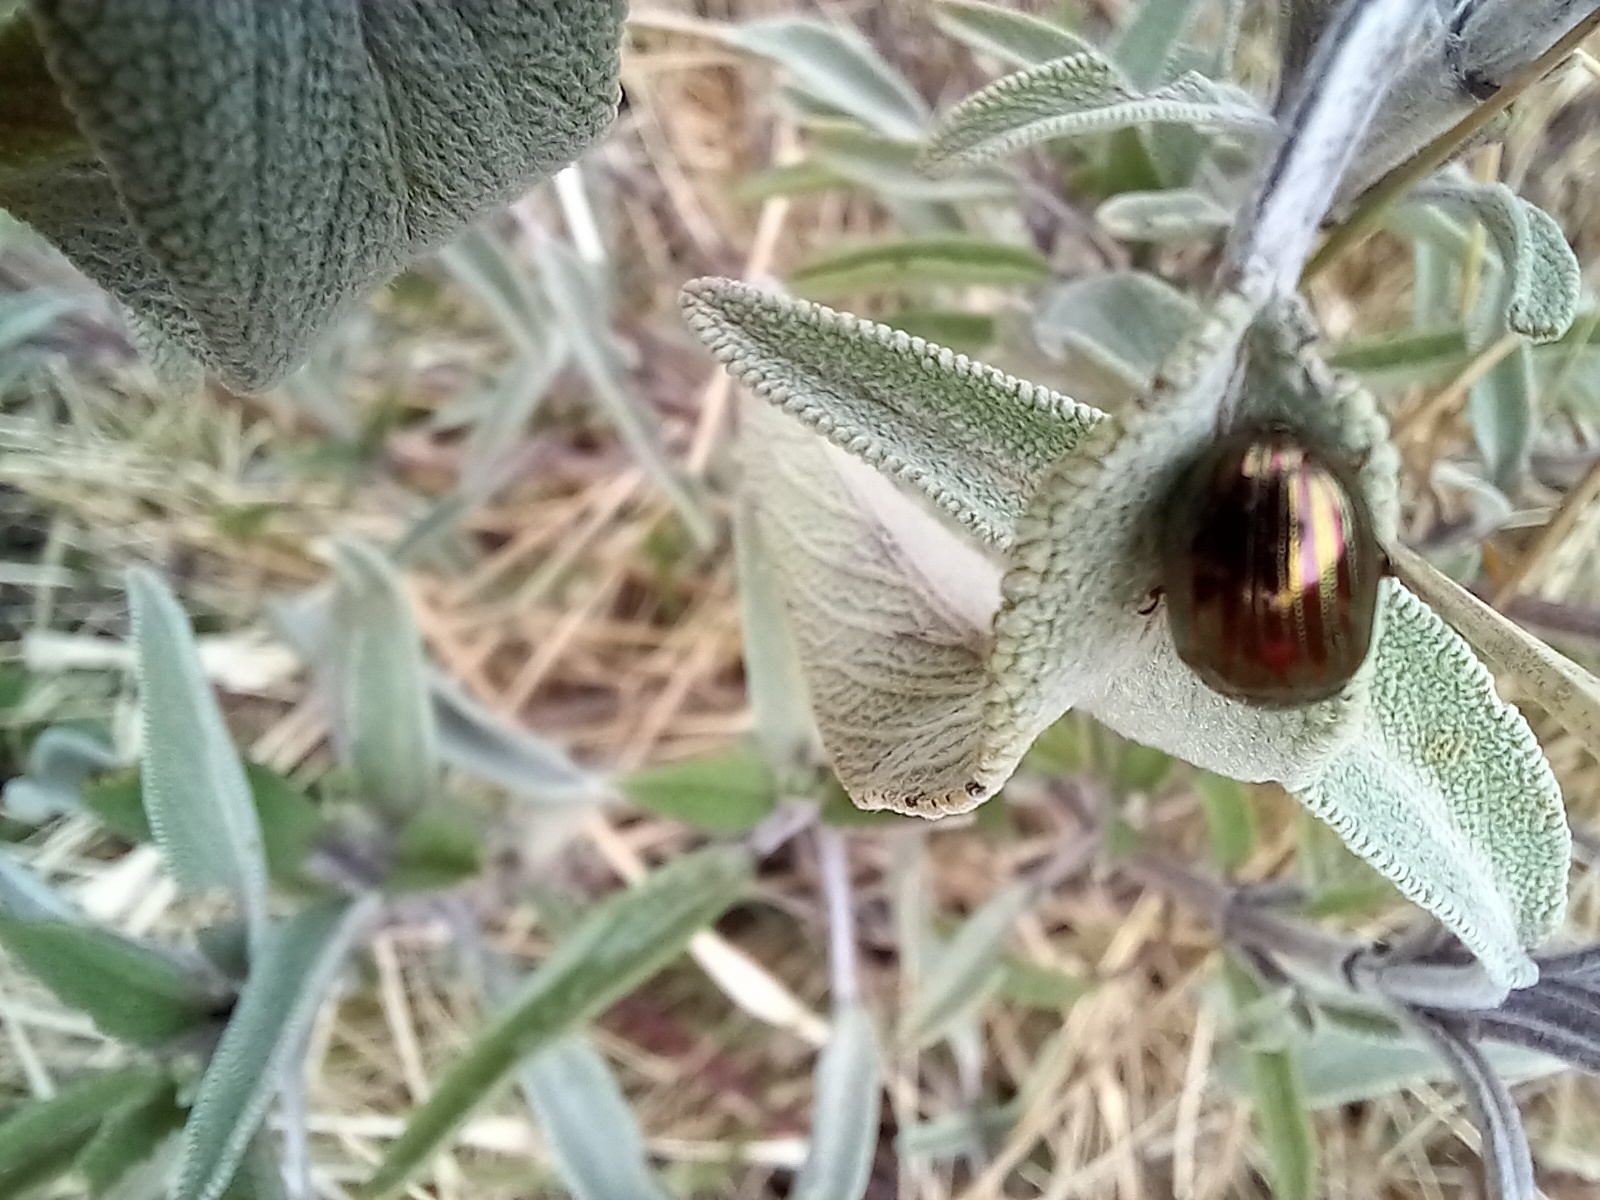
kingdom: Animalia
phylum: Arthropoda
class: Insecta
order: Coleoptera
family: Chrysomelidae
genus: Chrysolina
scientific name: Chrysolina americana
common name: Rosemary beetle
